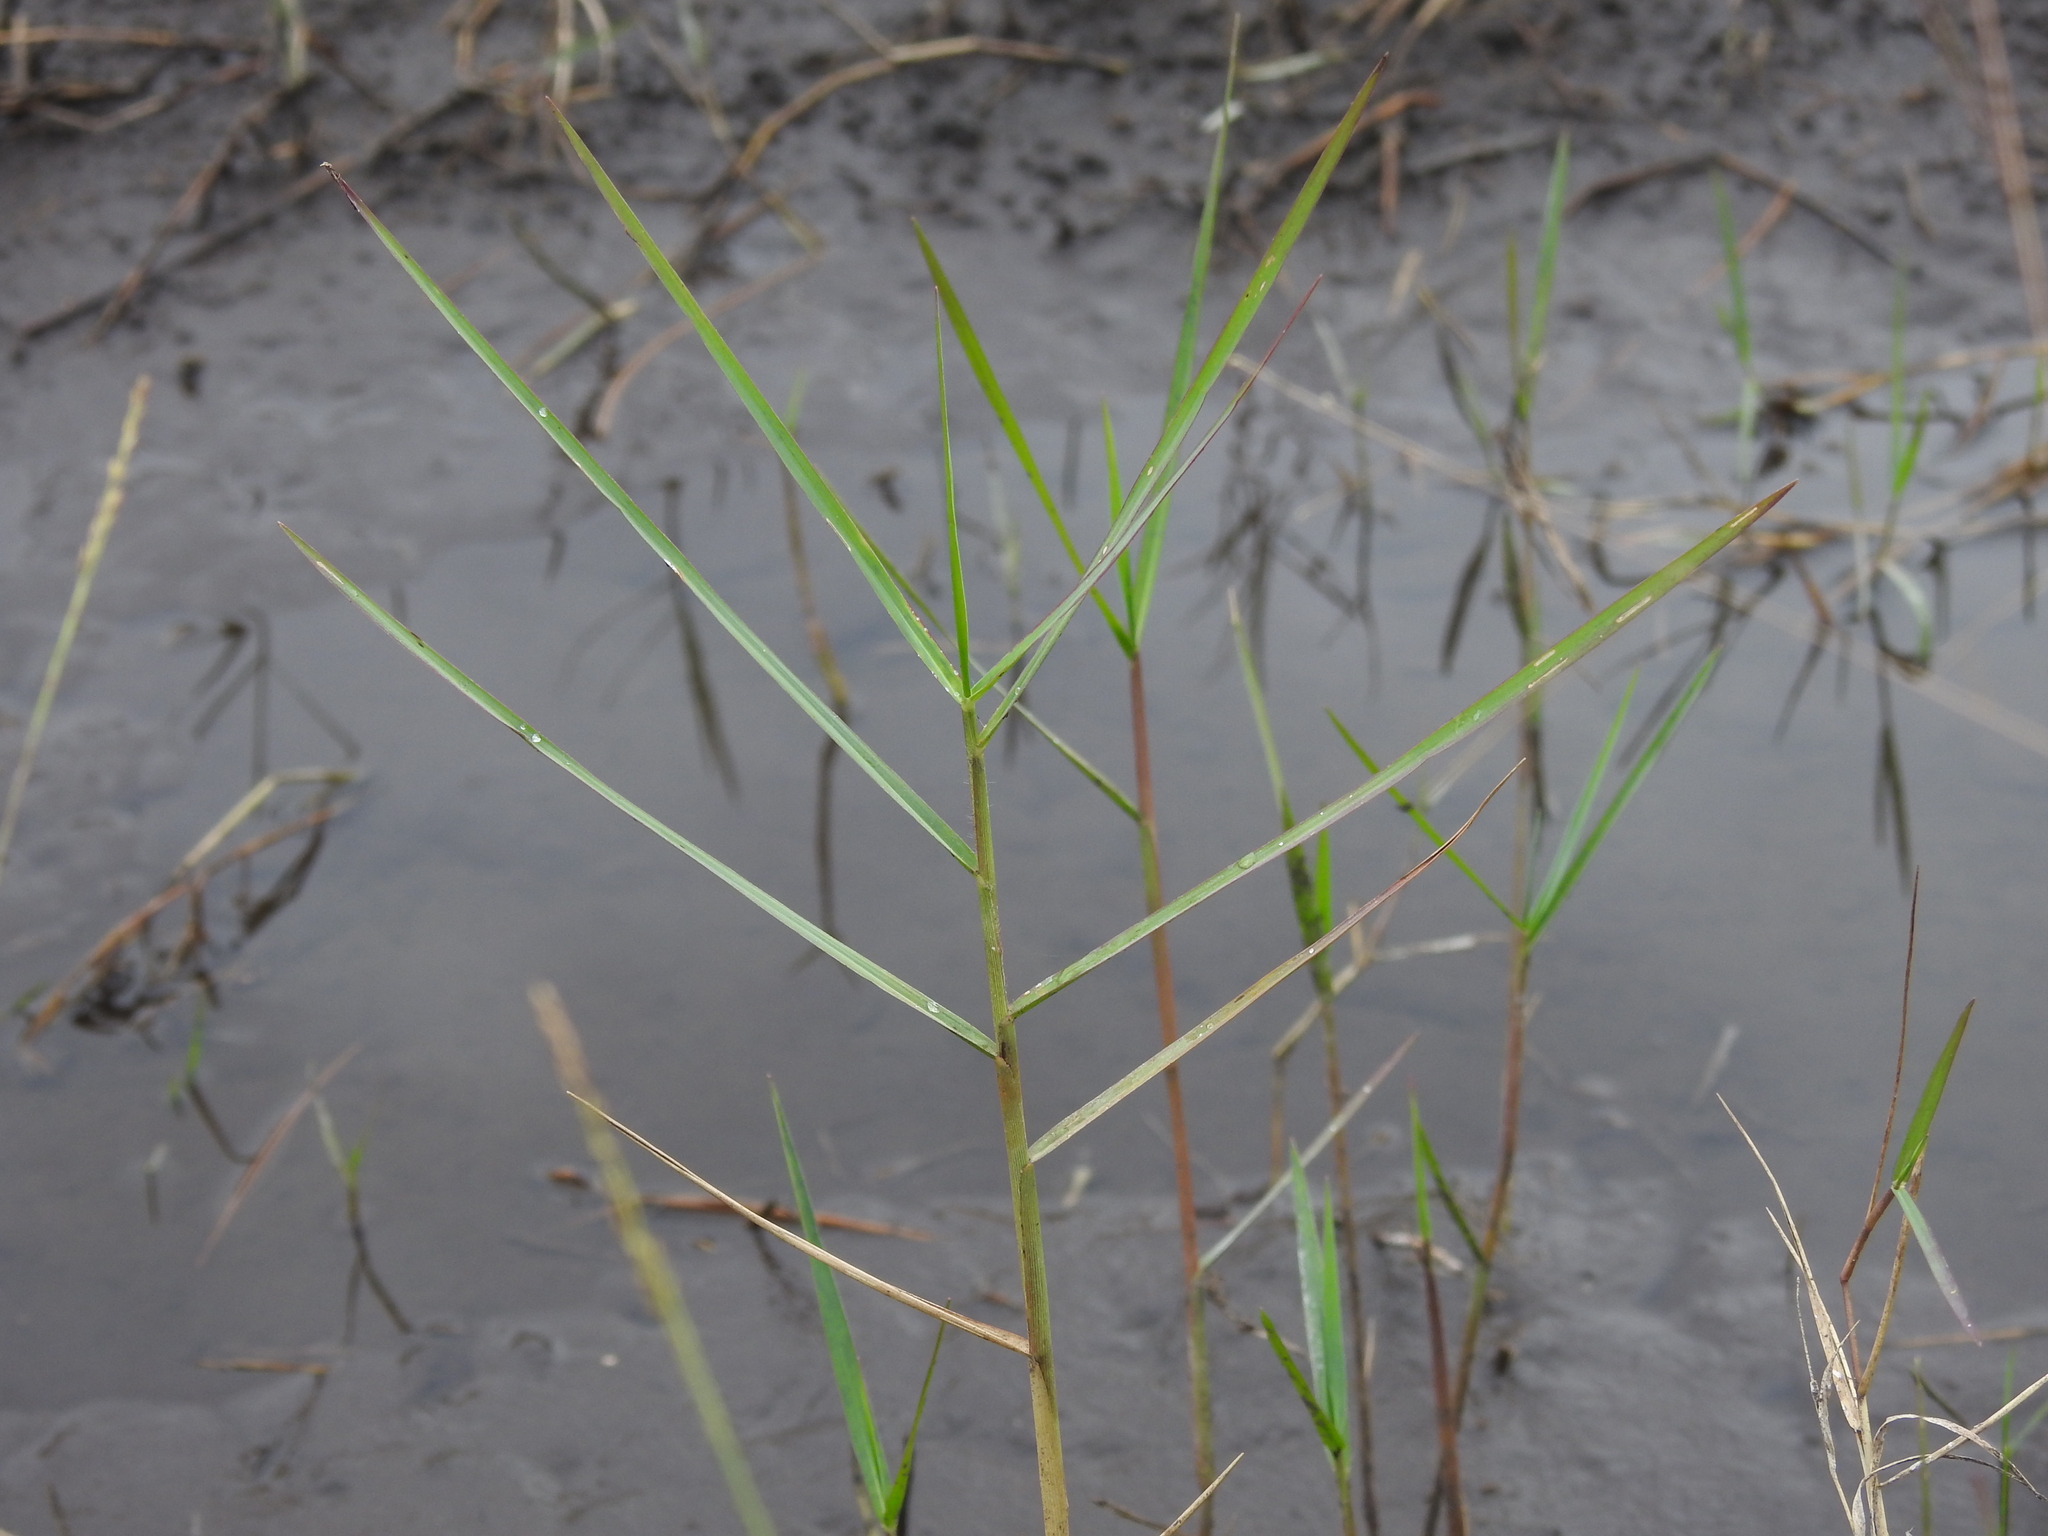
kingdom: Plantae
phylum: Tracheophyta
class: Liliopsida
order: Poales
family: Poaceae
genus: Panicum
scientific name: Panicum repens
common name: Torpedo grass
